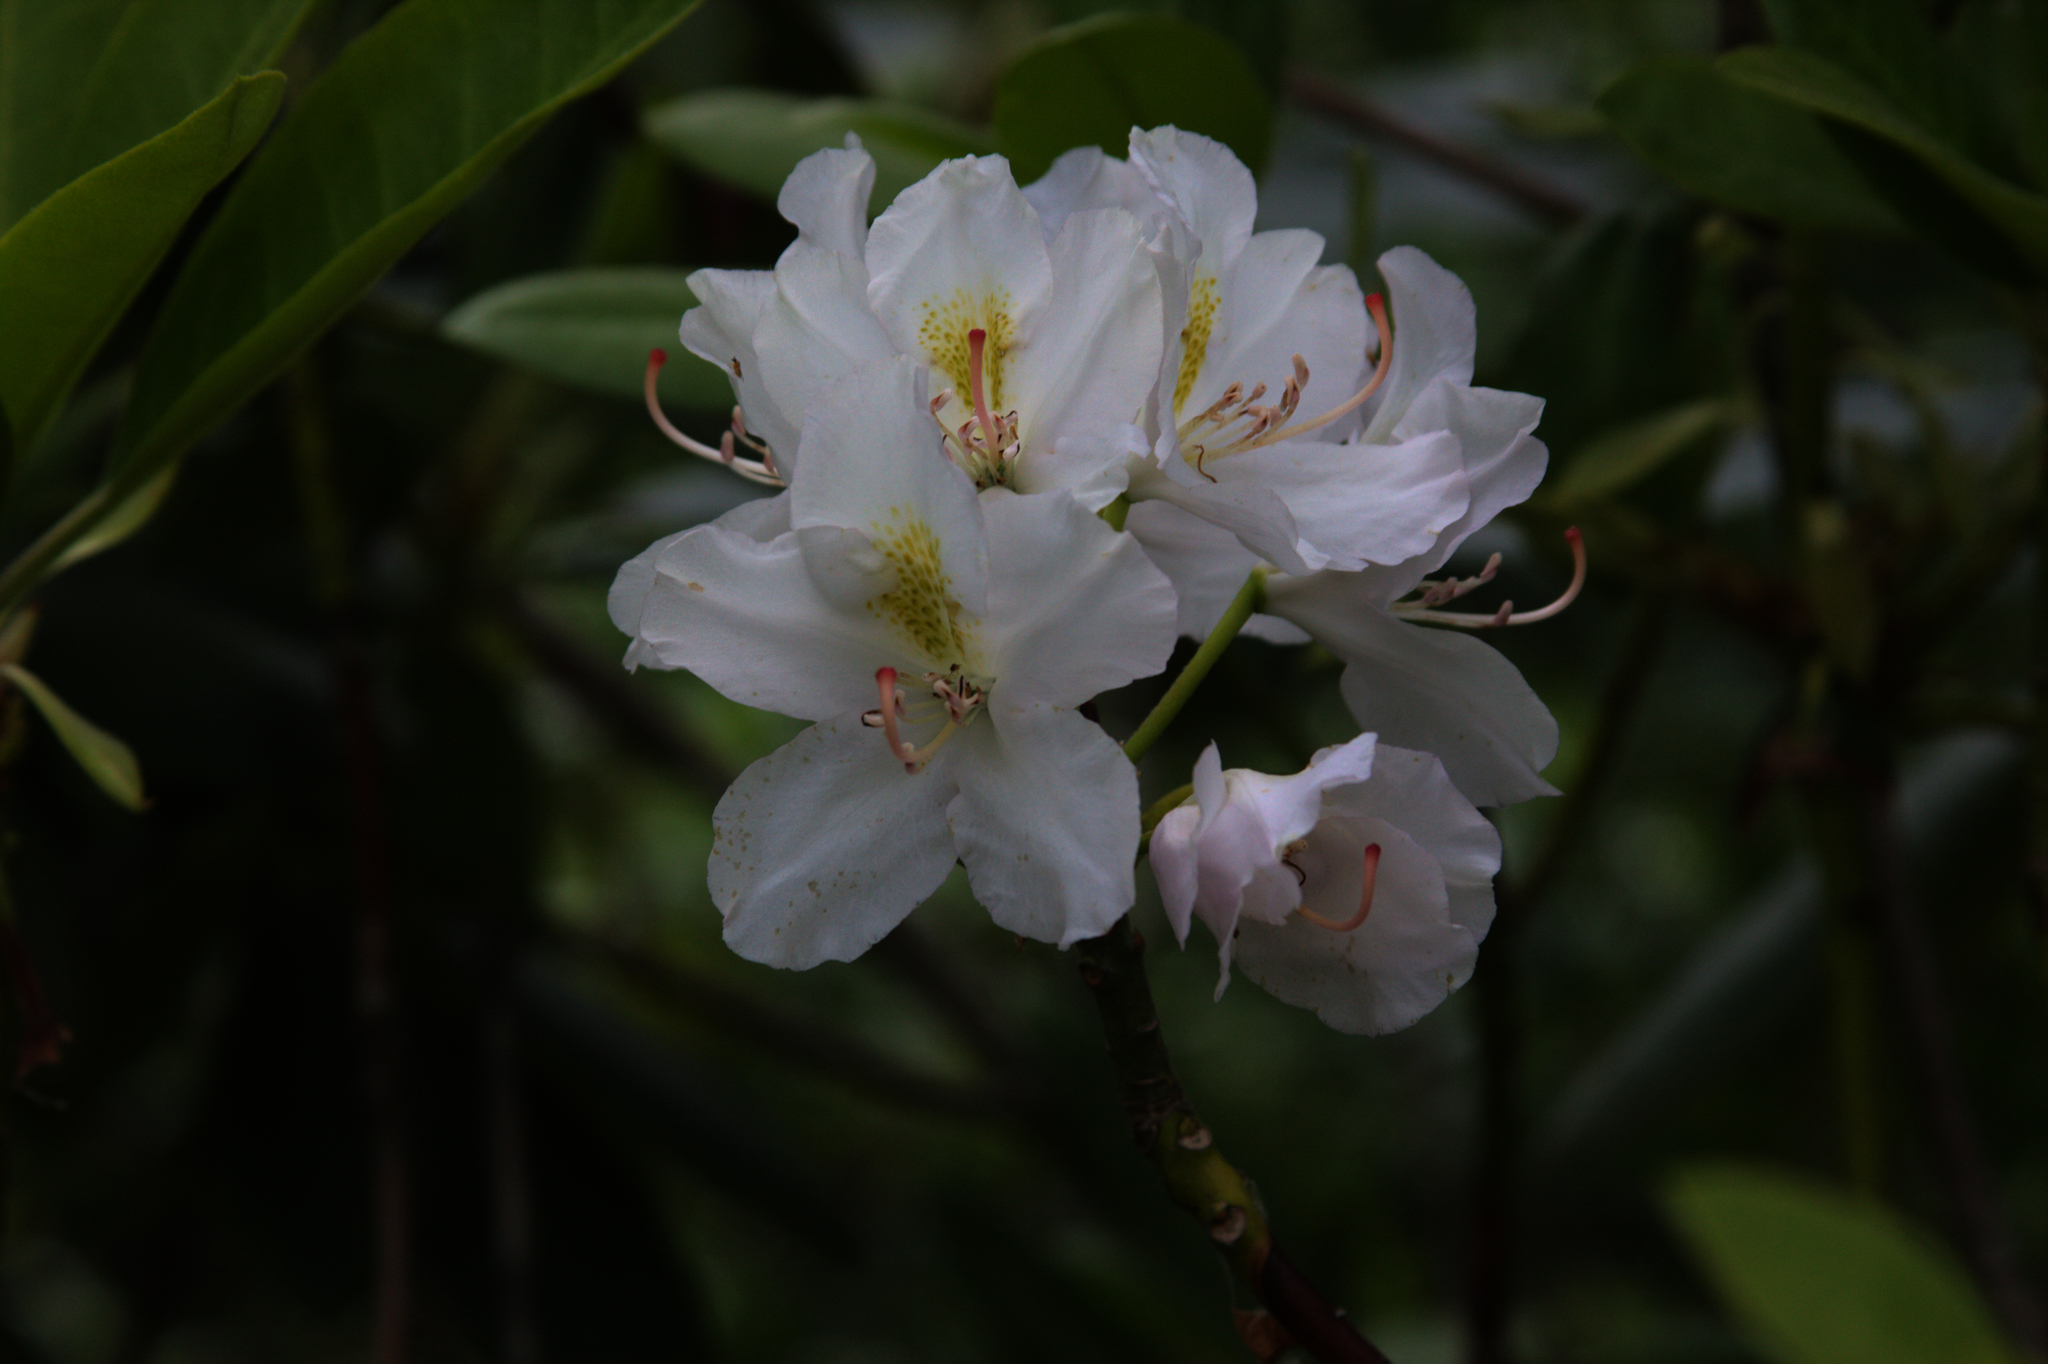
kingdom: Plantae
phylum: Tracheophyta
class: Magnoliopsida
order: Ericales
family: Ericaceae
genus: Rhododendron
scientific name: Rhododendron maximum
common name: Great rhododendron
